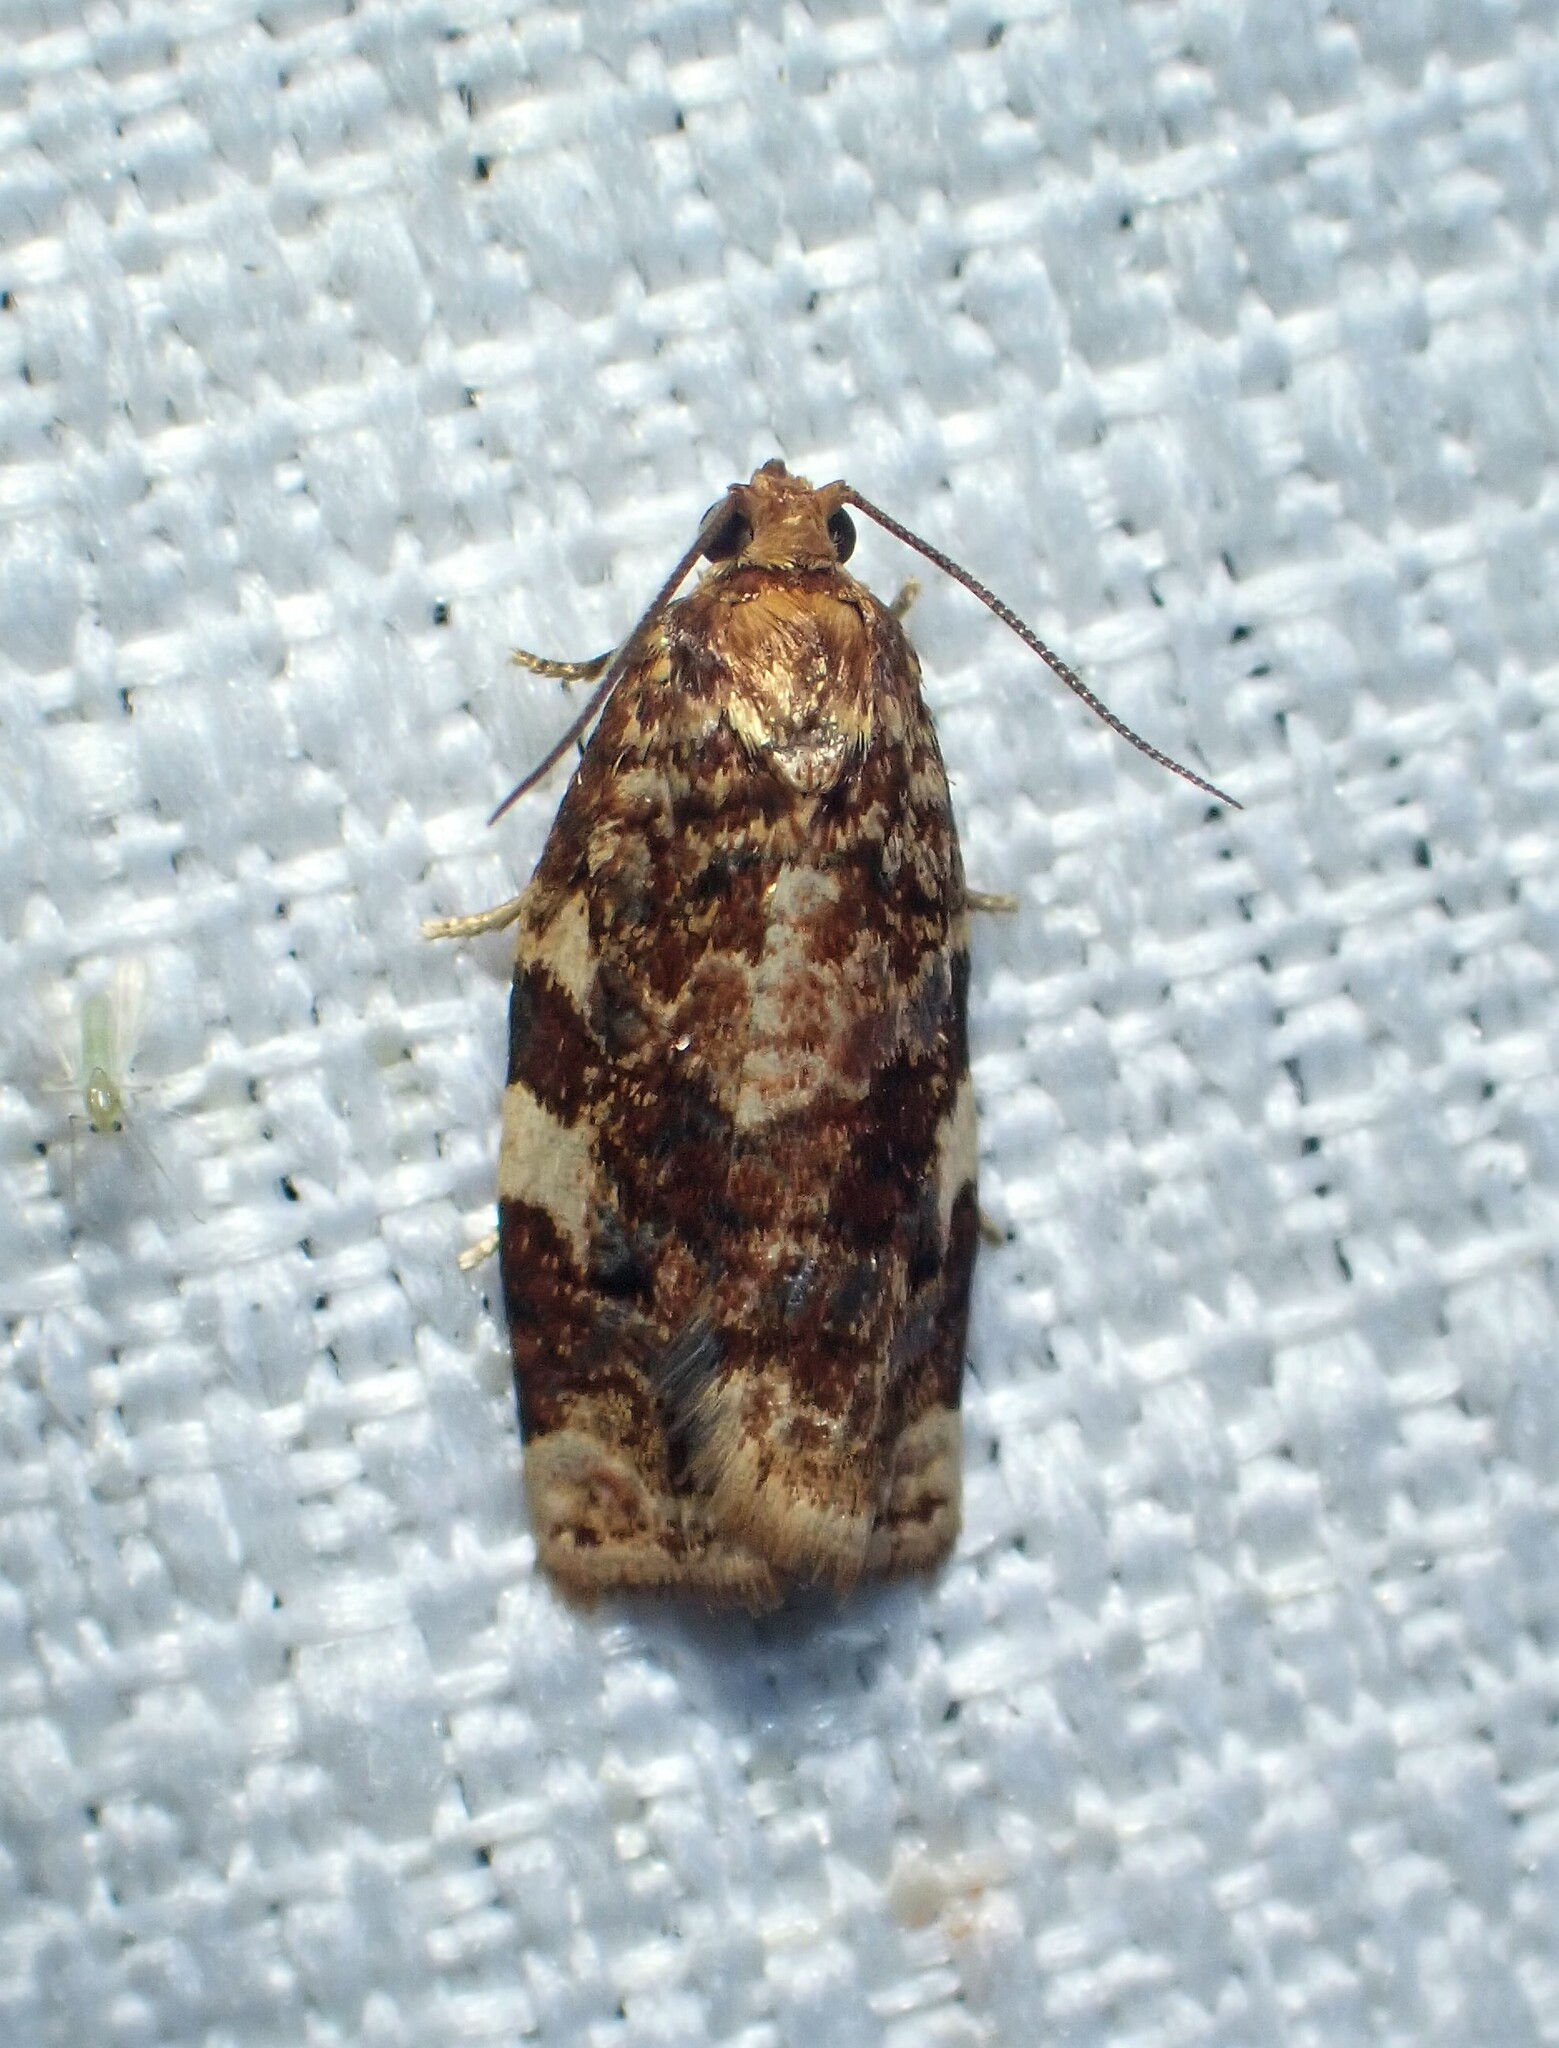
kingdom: Animalia
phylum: Arthropoda
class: Insecta
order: Lepidoptera
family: Tortricidae
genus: Archips
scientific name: Archips argyrospila
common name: Fruit-tree leafroller moth
